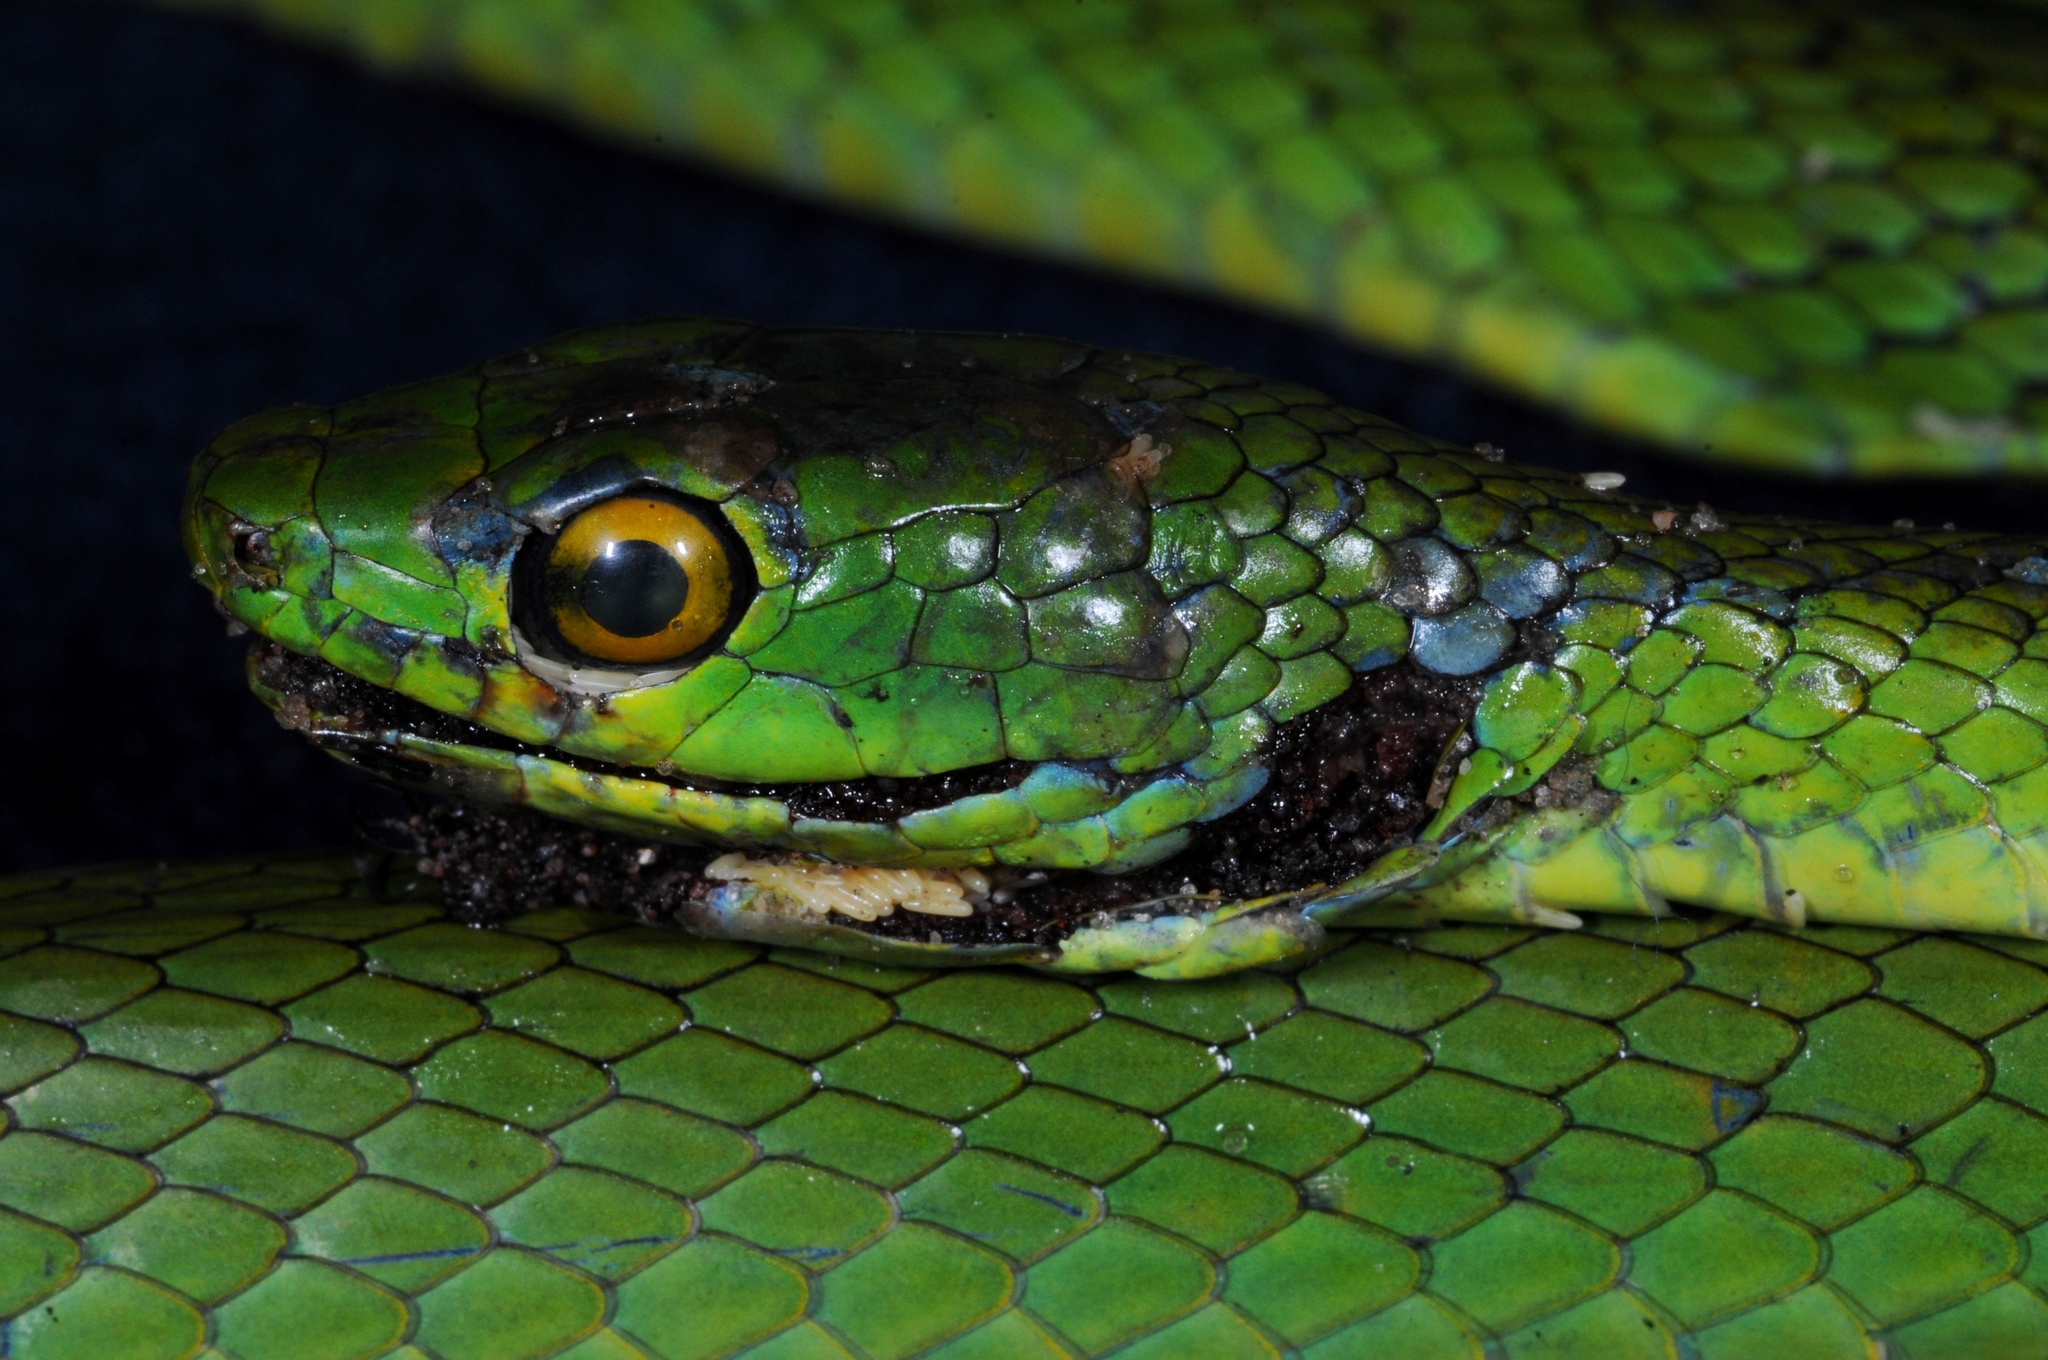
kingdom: Animalia
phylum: Chordata
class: Squamata
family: Colubridae
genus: Philothamnus
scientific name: Philothamnus natalensis
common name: Eastern natal green snake
